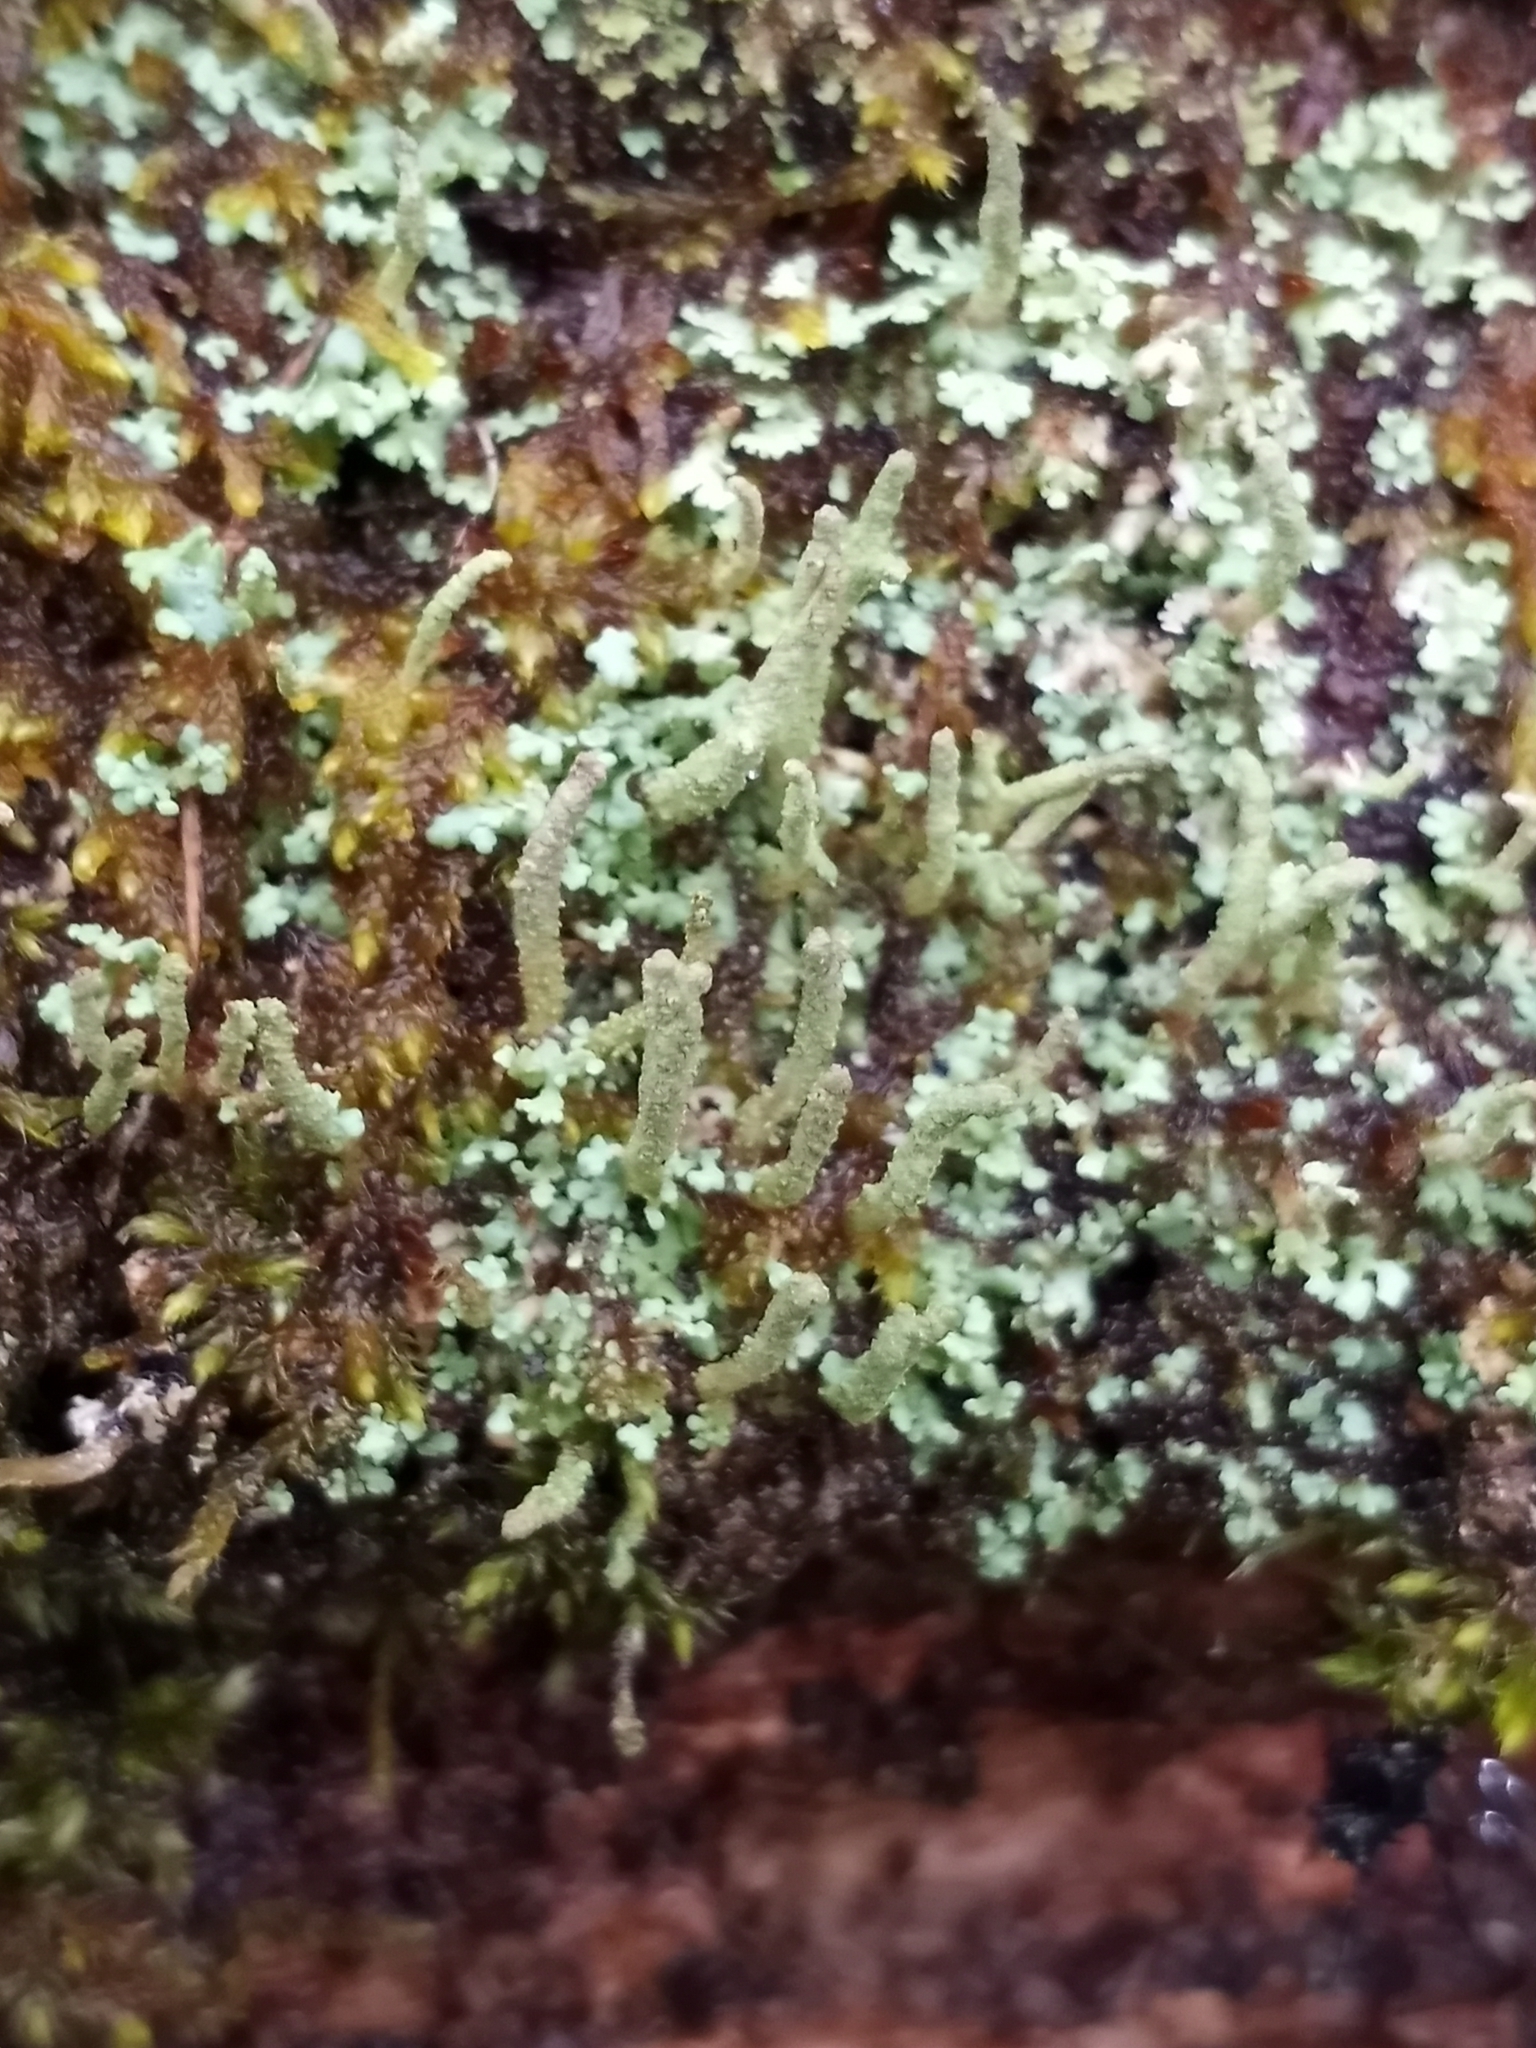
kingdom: Fungi
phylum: Ascomycota
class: Lecanoromycetes
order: Lecanorales
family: Cladoniaceae
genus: Cladonia
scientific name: Cladonia coniocraea
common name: Common powderhorn
